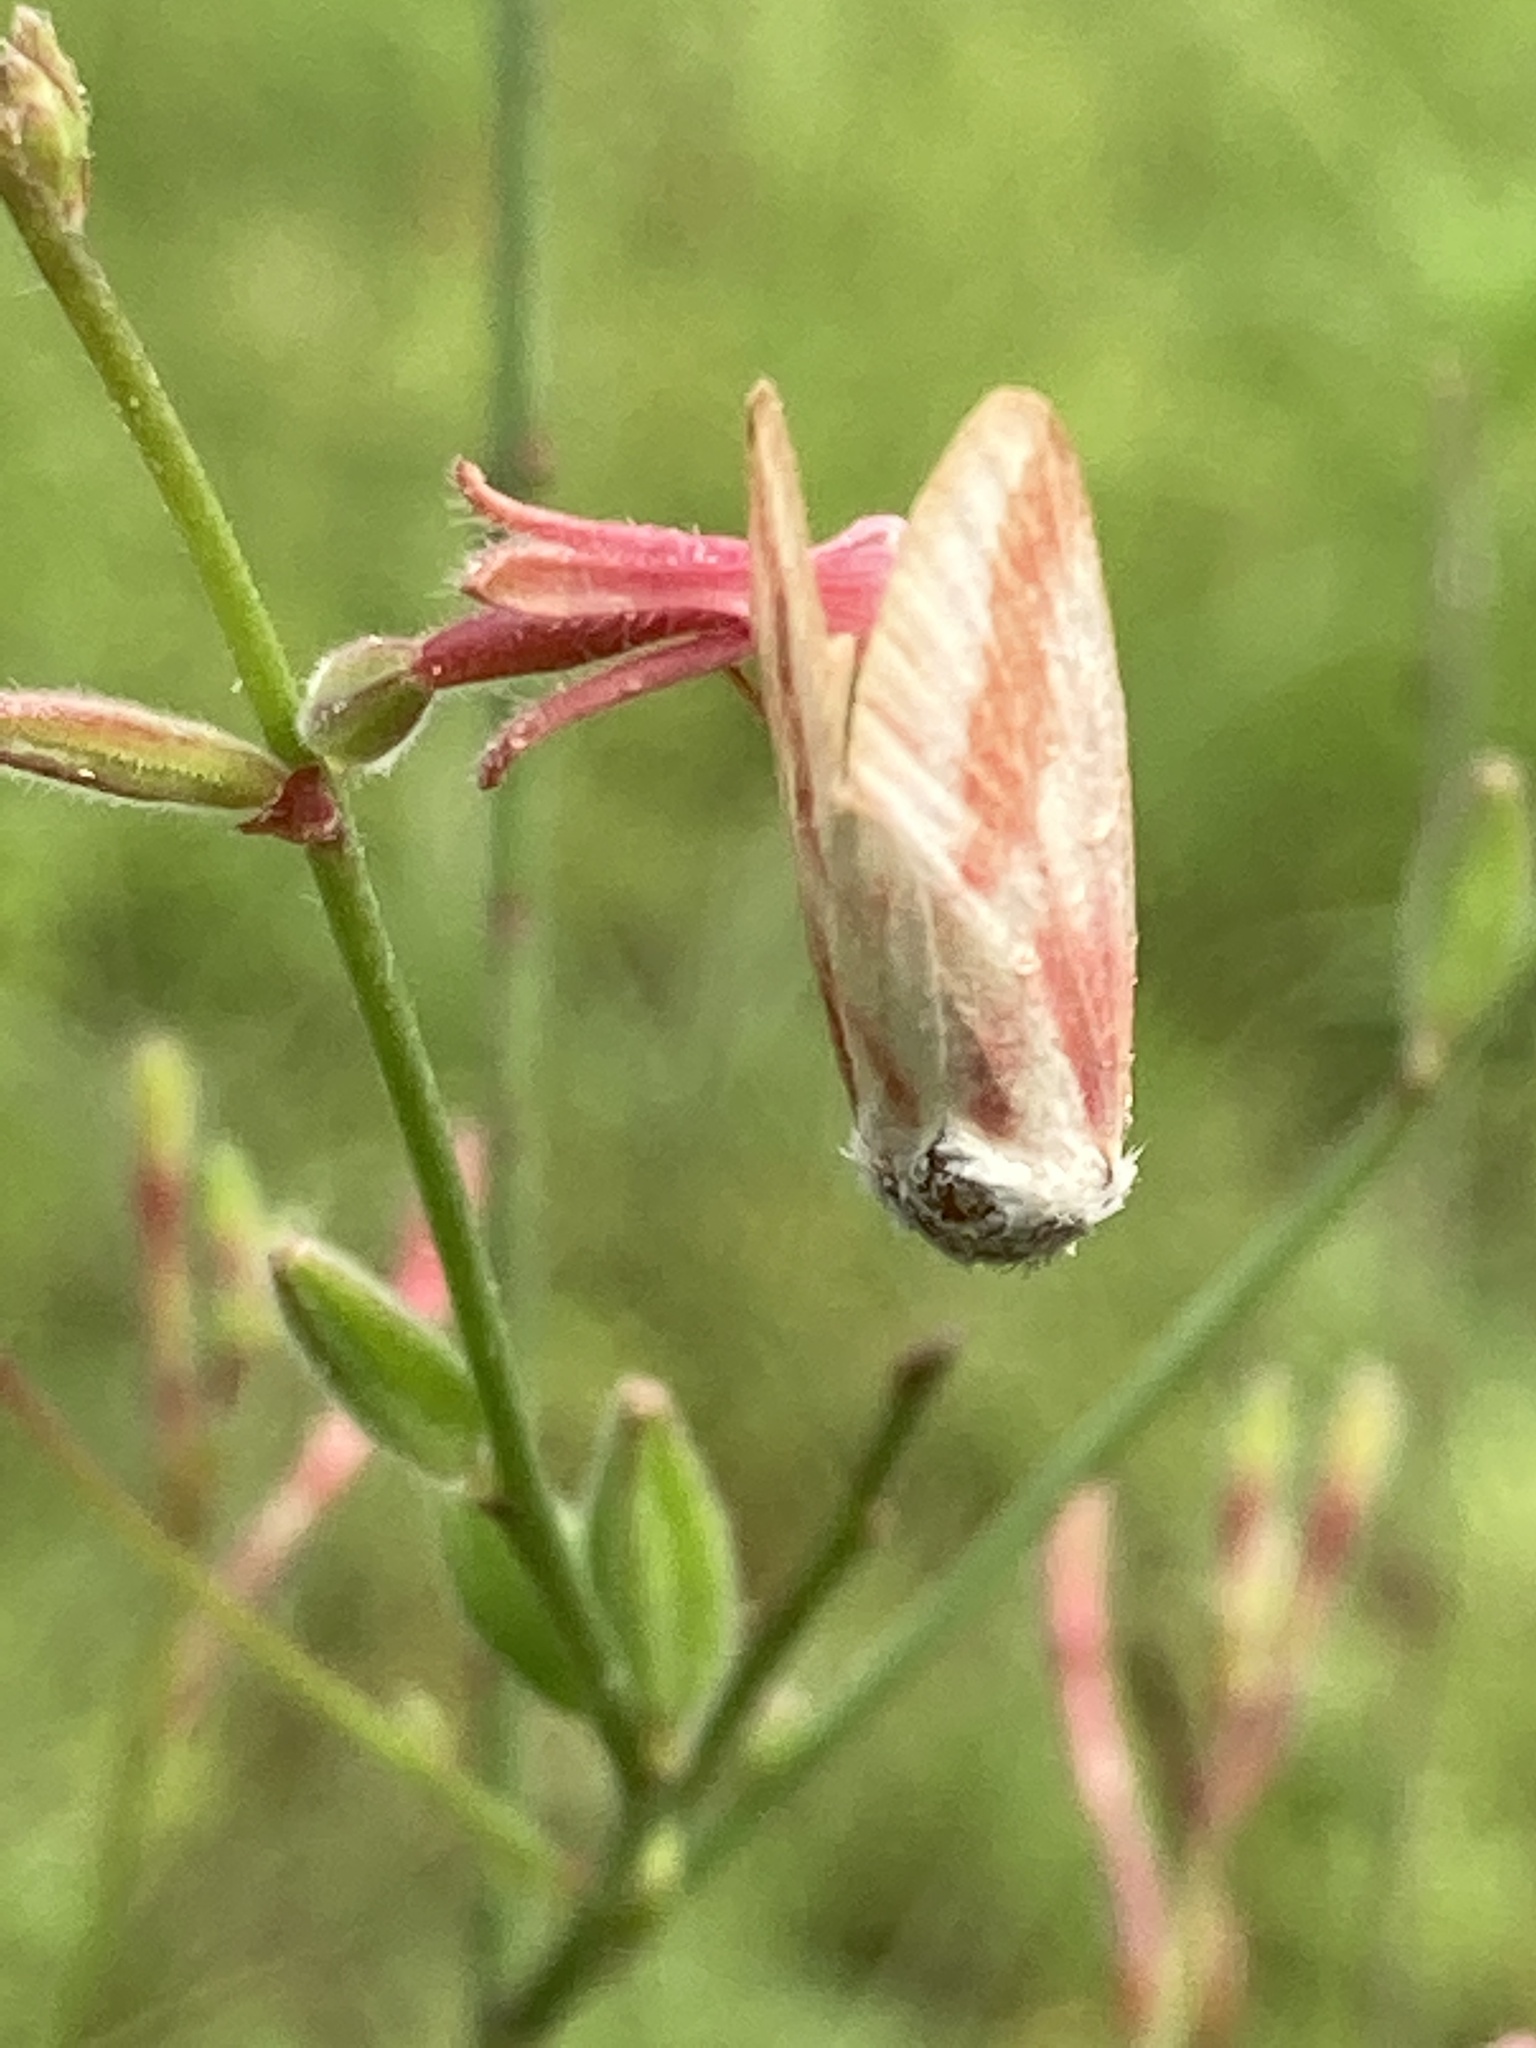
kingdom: Animalia
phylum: Arthropoda
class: Insecta
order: Lepidoptera
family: Noctuidae
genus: Schinia
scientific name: Schinia gaurae
